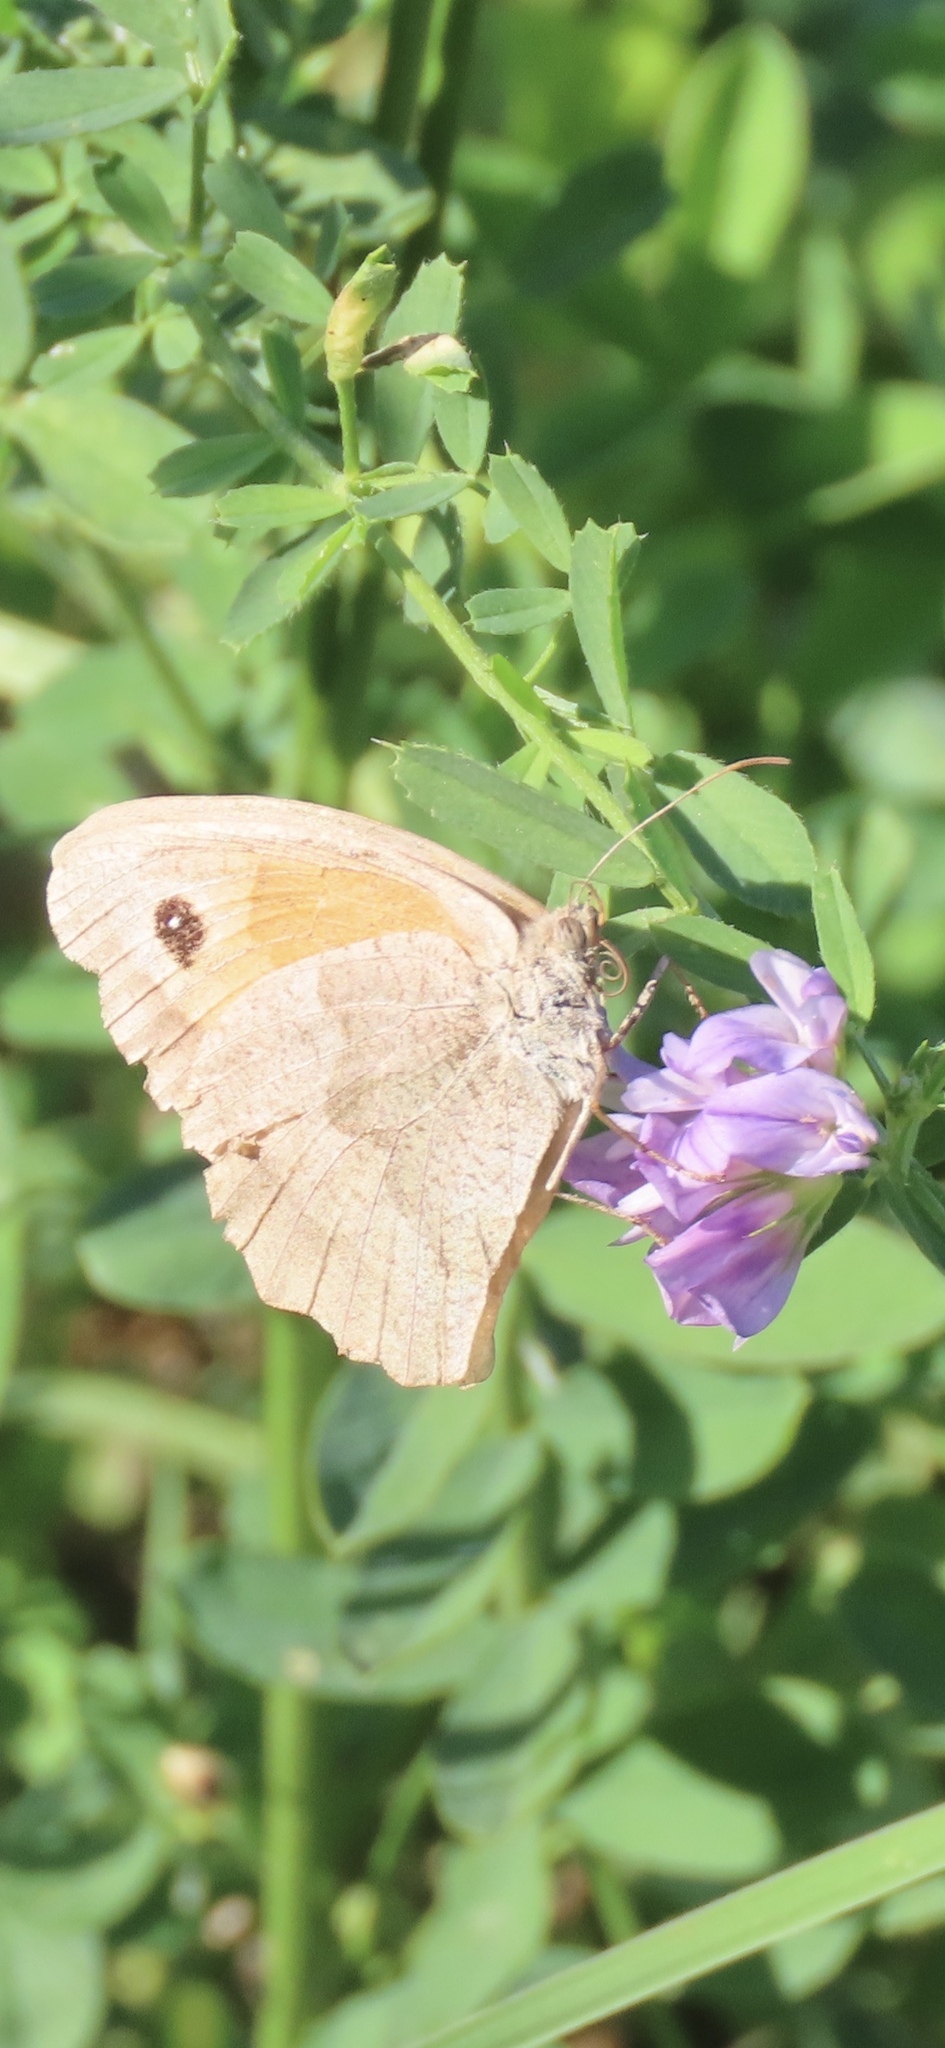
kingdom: Animalia
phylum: Arthropoda
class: Insecta
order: Lepidoptera
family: Nymphalidae
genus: Maniola
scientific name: Maniola jurtina
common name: Meadow brown
